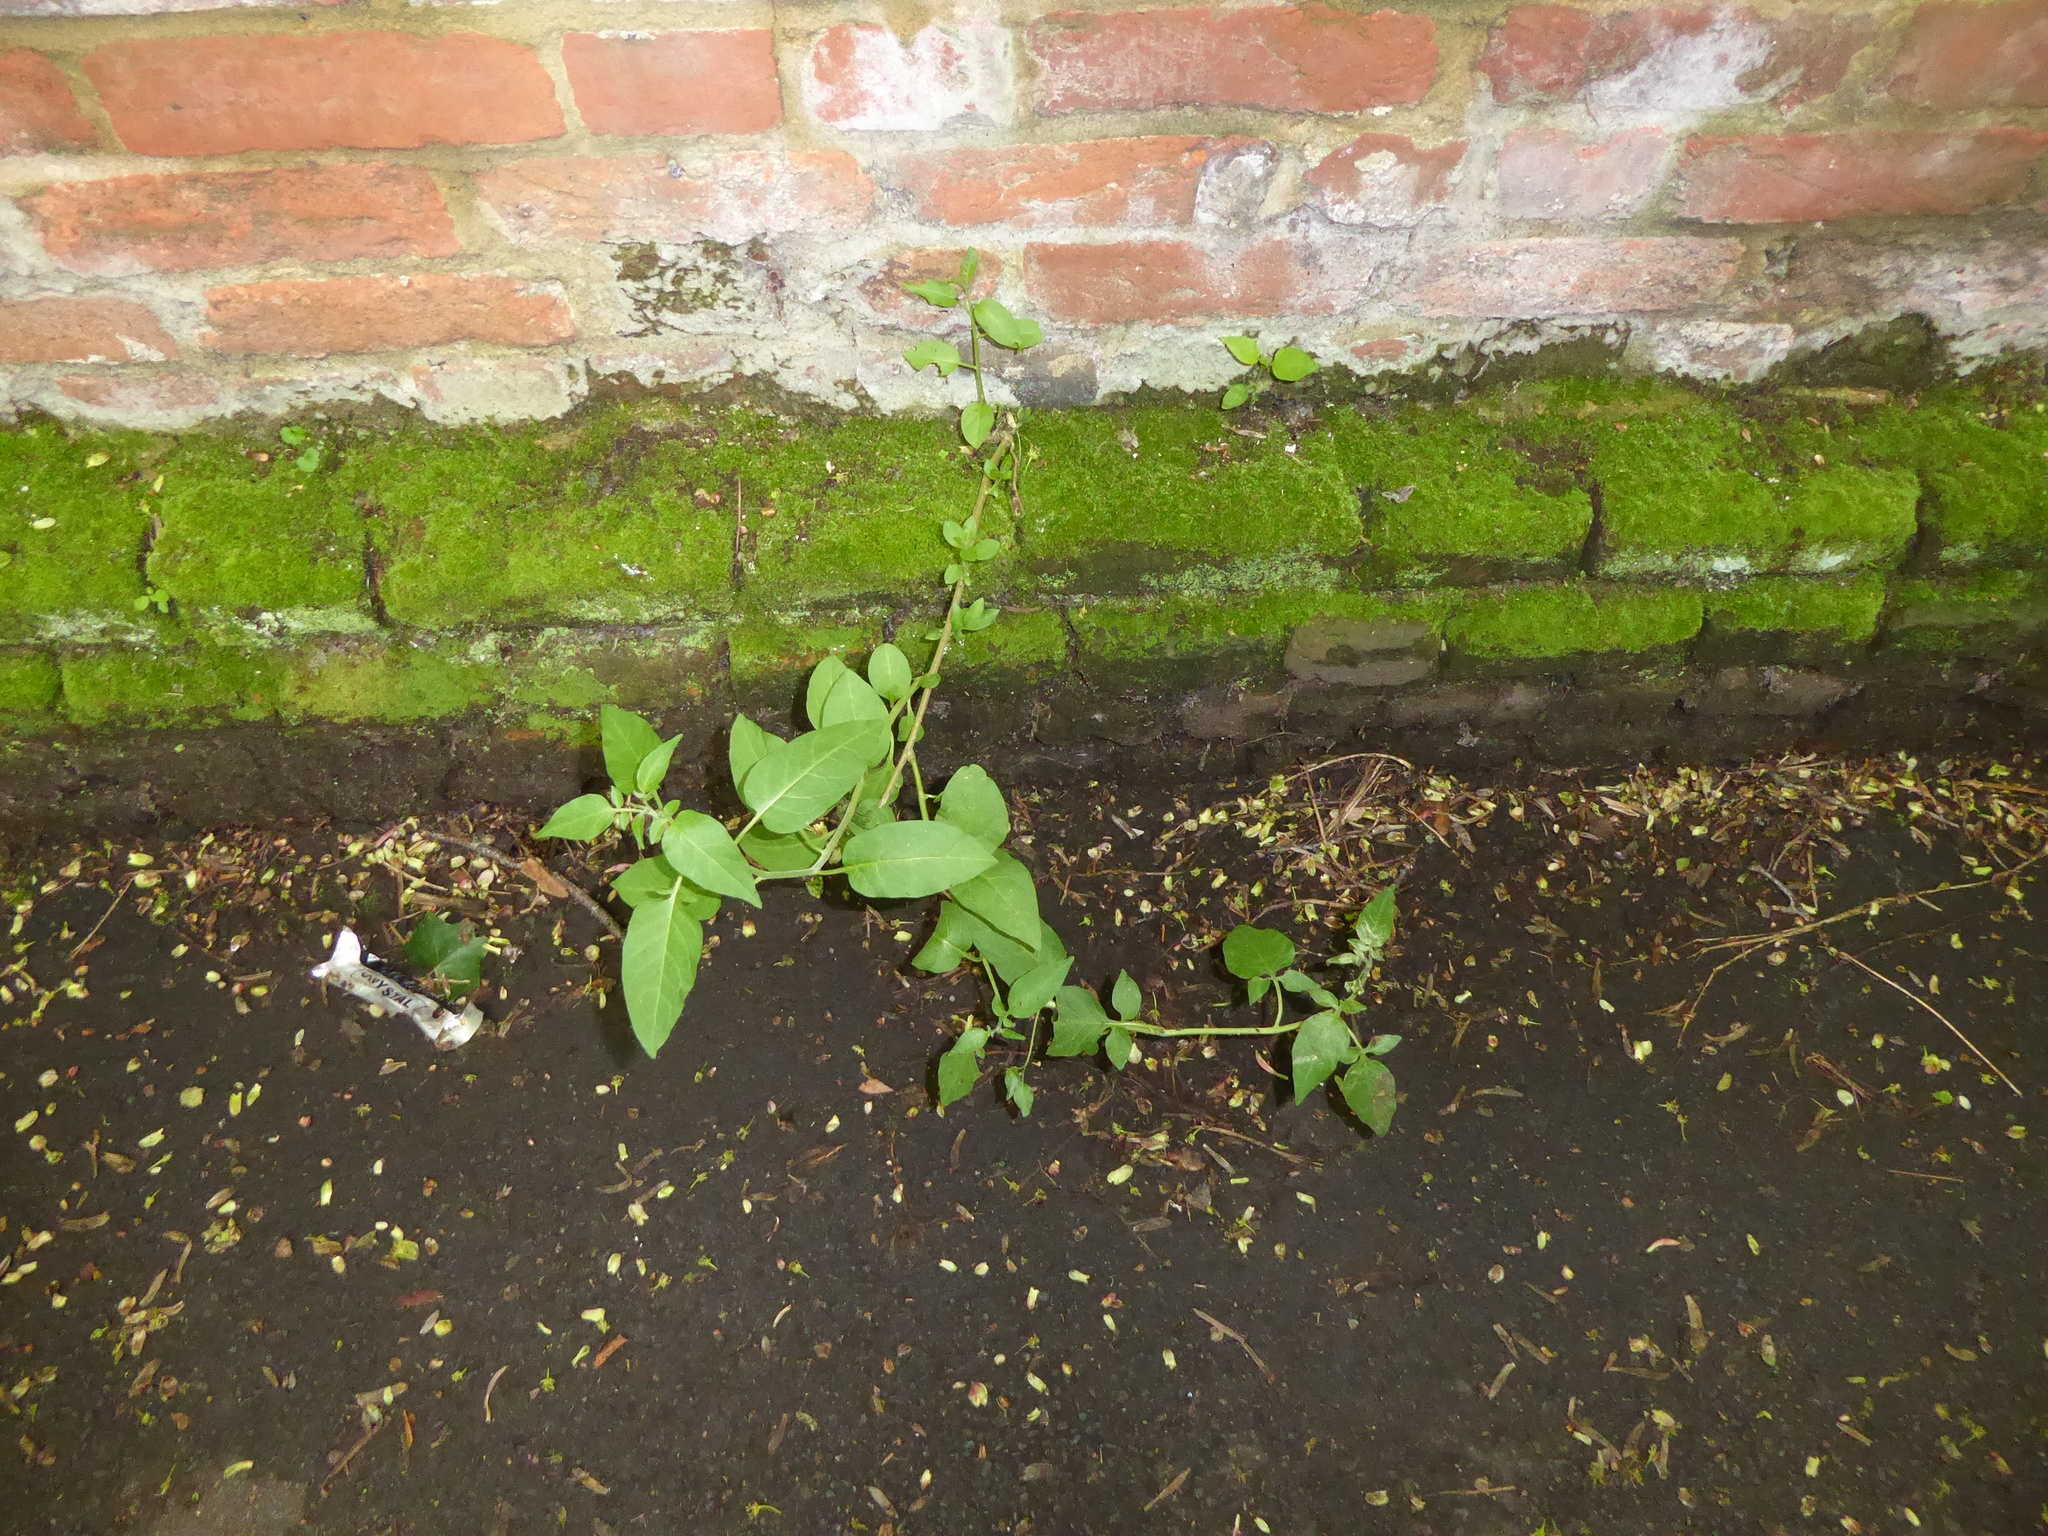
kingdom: Plantae
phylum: Tracheophyta
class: Magnoliopsida
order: Solanales
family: Solanaceae
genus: Solanum
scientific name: Solanum dulcamara
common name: Climbing nightshade
